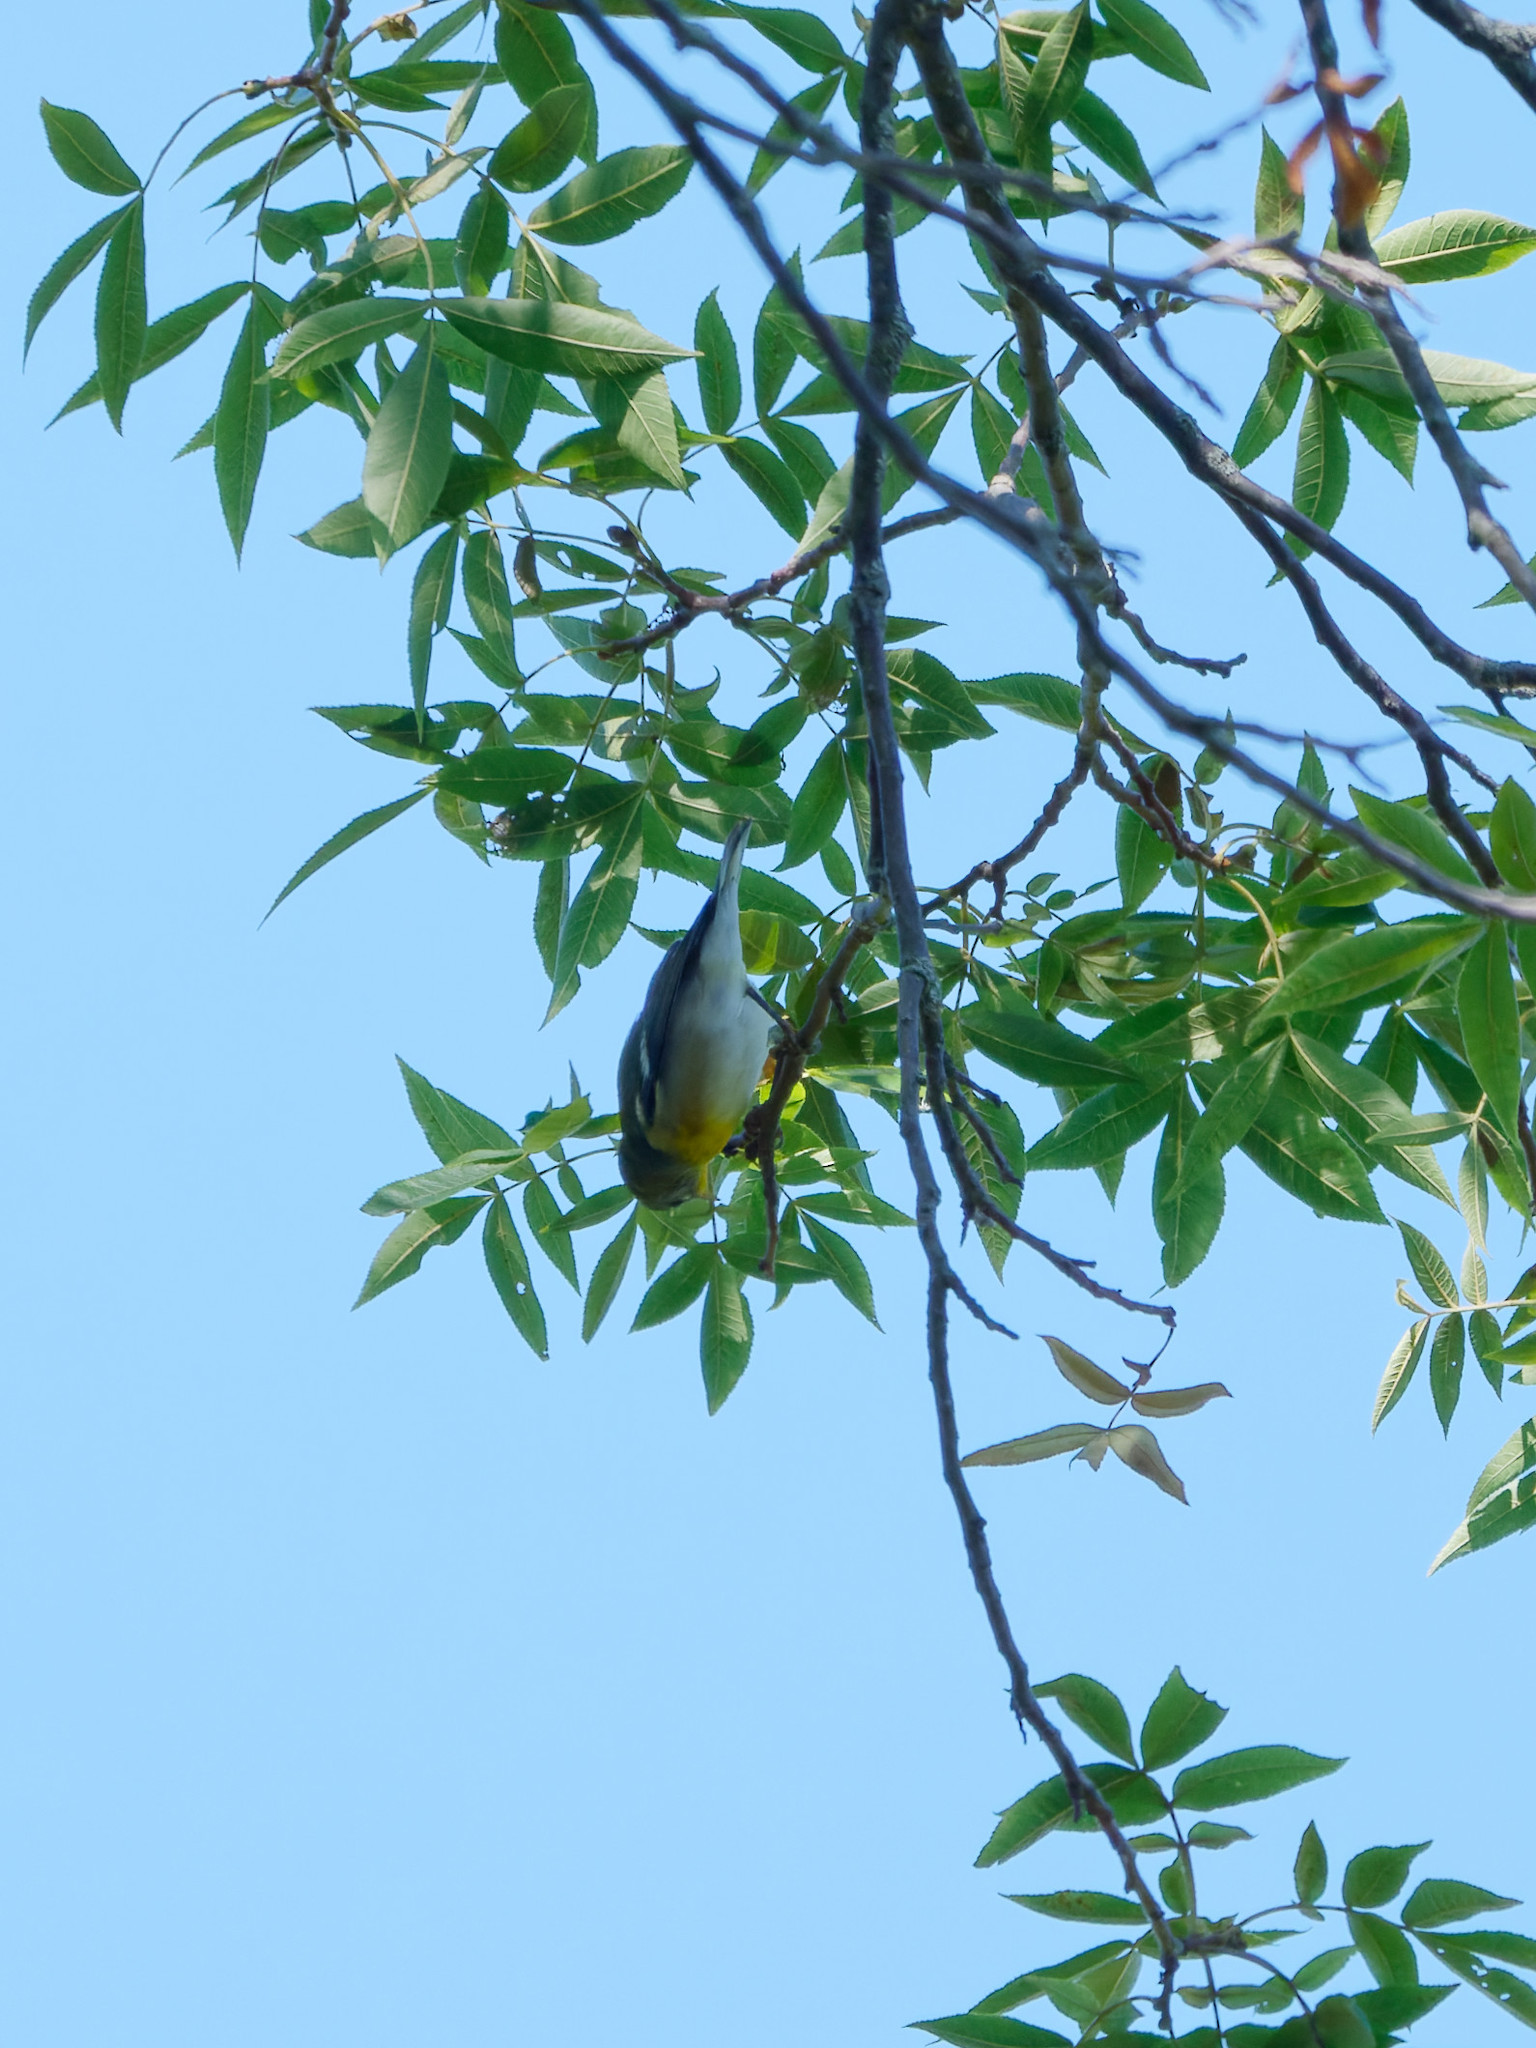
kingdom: Animalia
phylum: Chordata
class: Aves
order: Passeriformes
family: Parulidae
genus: Setophaga
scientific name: Setophaga americana
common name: Northern parula
